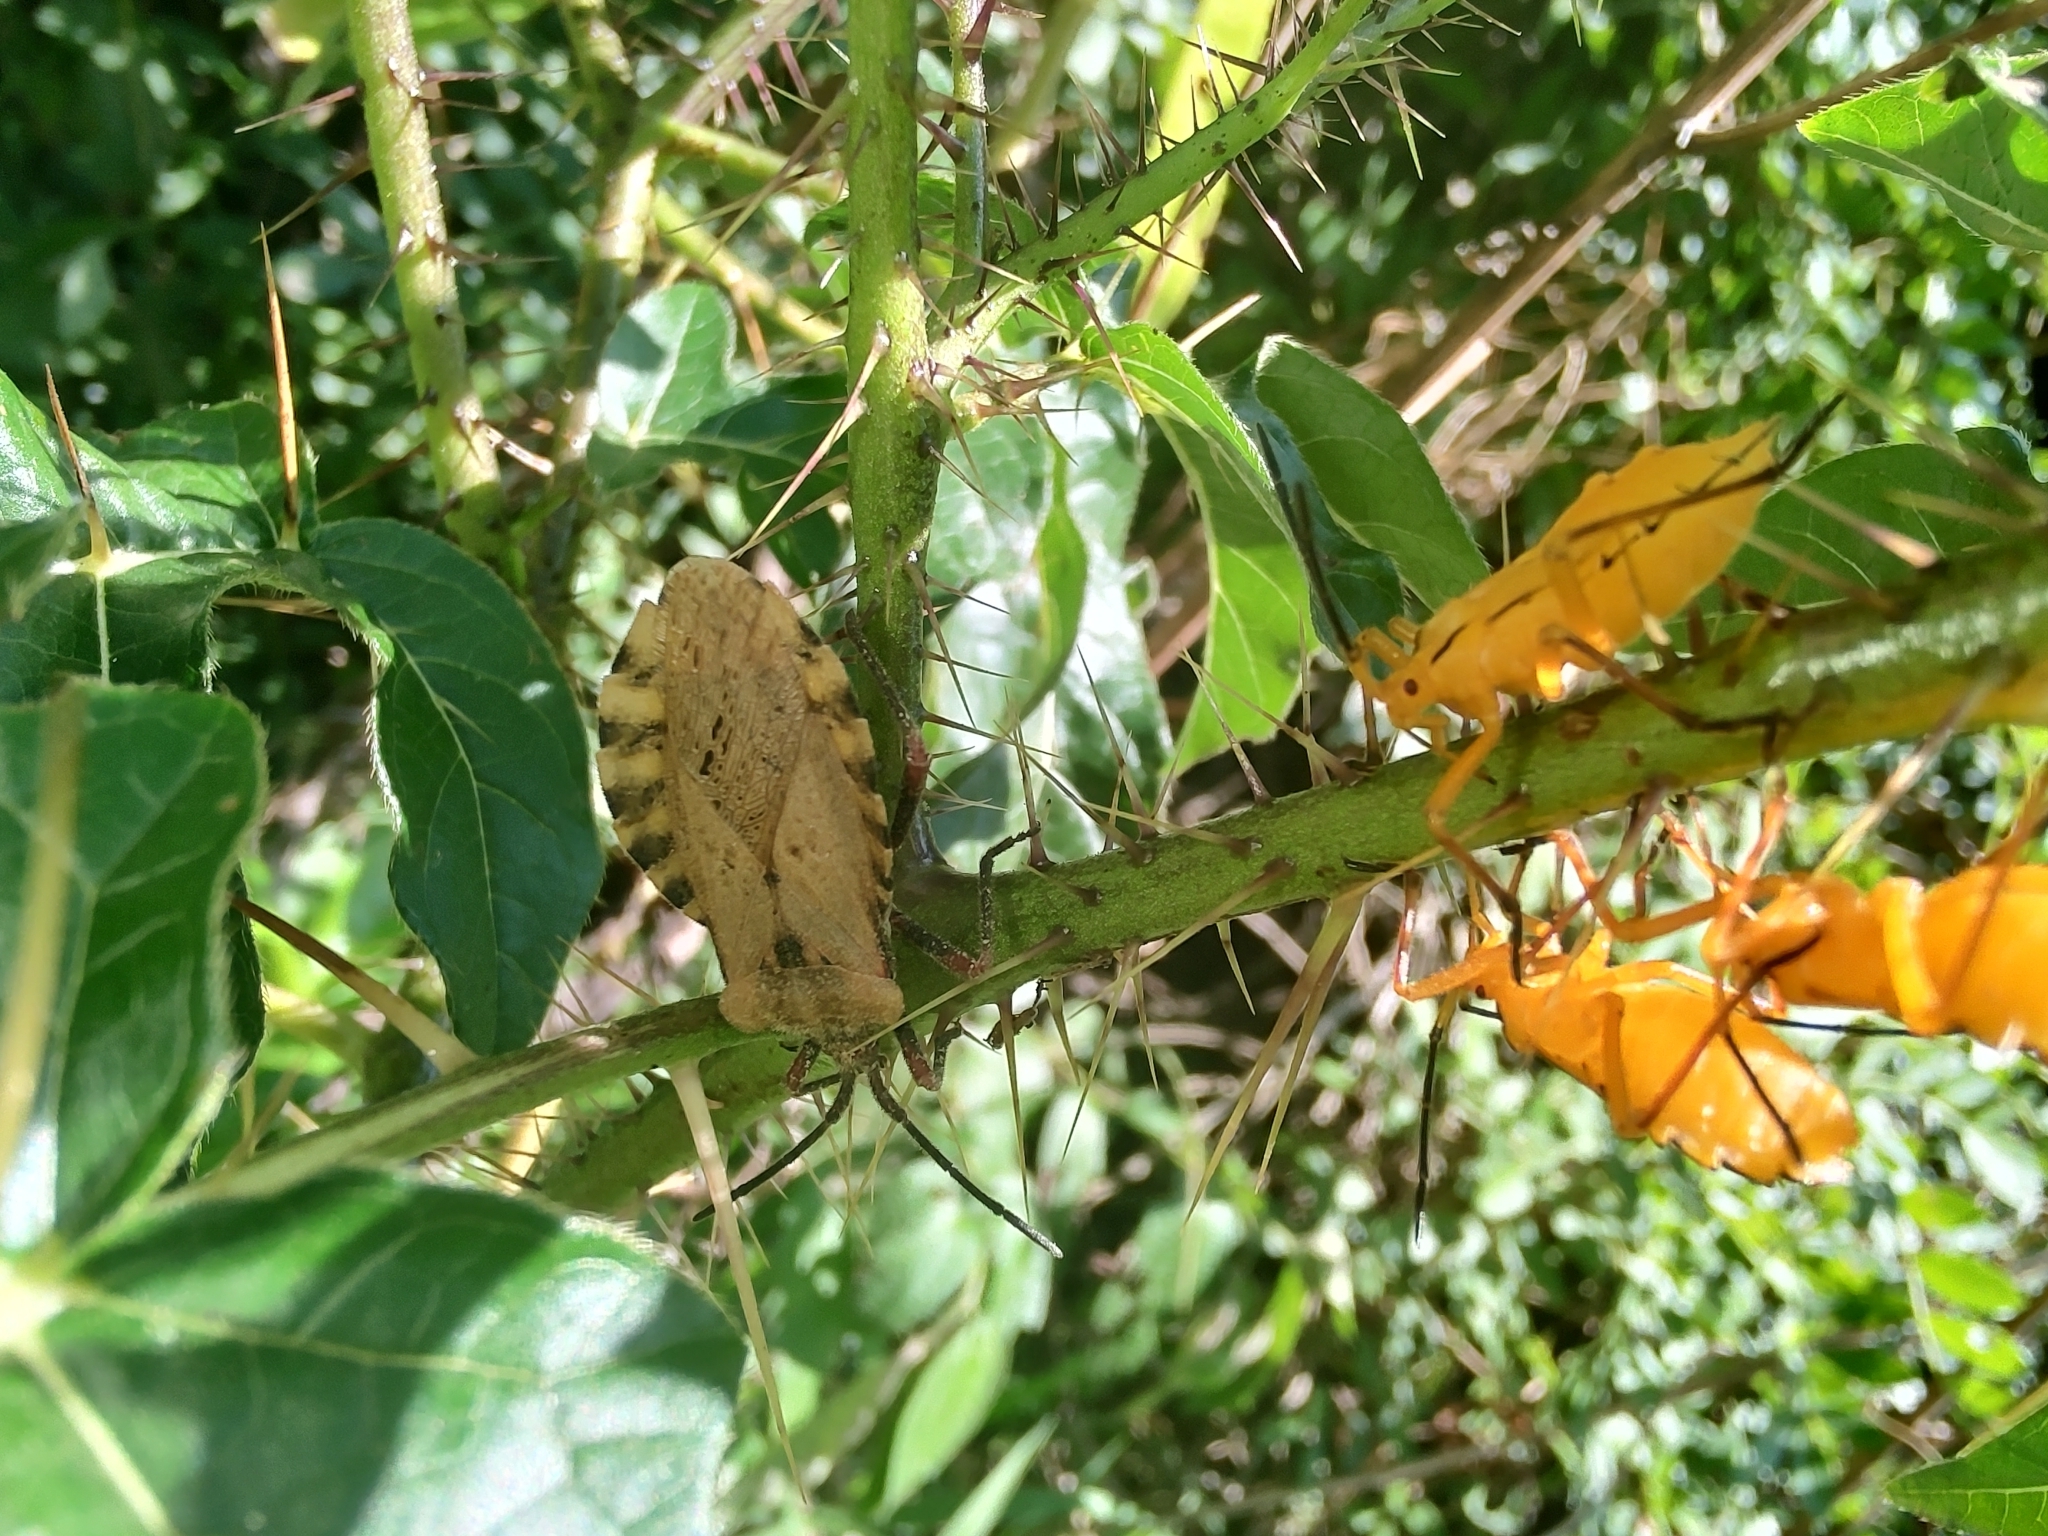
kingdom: Animalia
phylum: Arthropoda
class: Insecta
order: Hemiptera
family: Coreidae
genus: Spartocera
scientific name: Spartocera fusca
